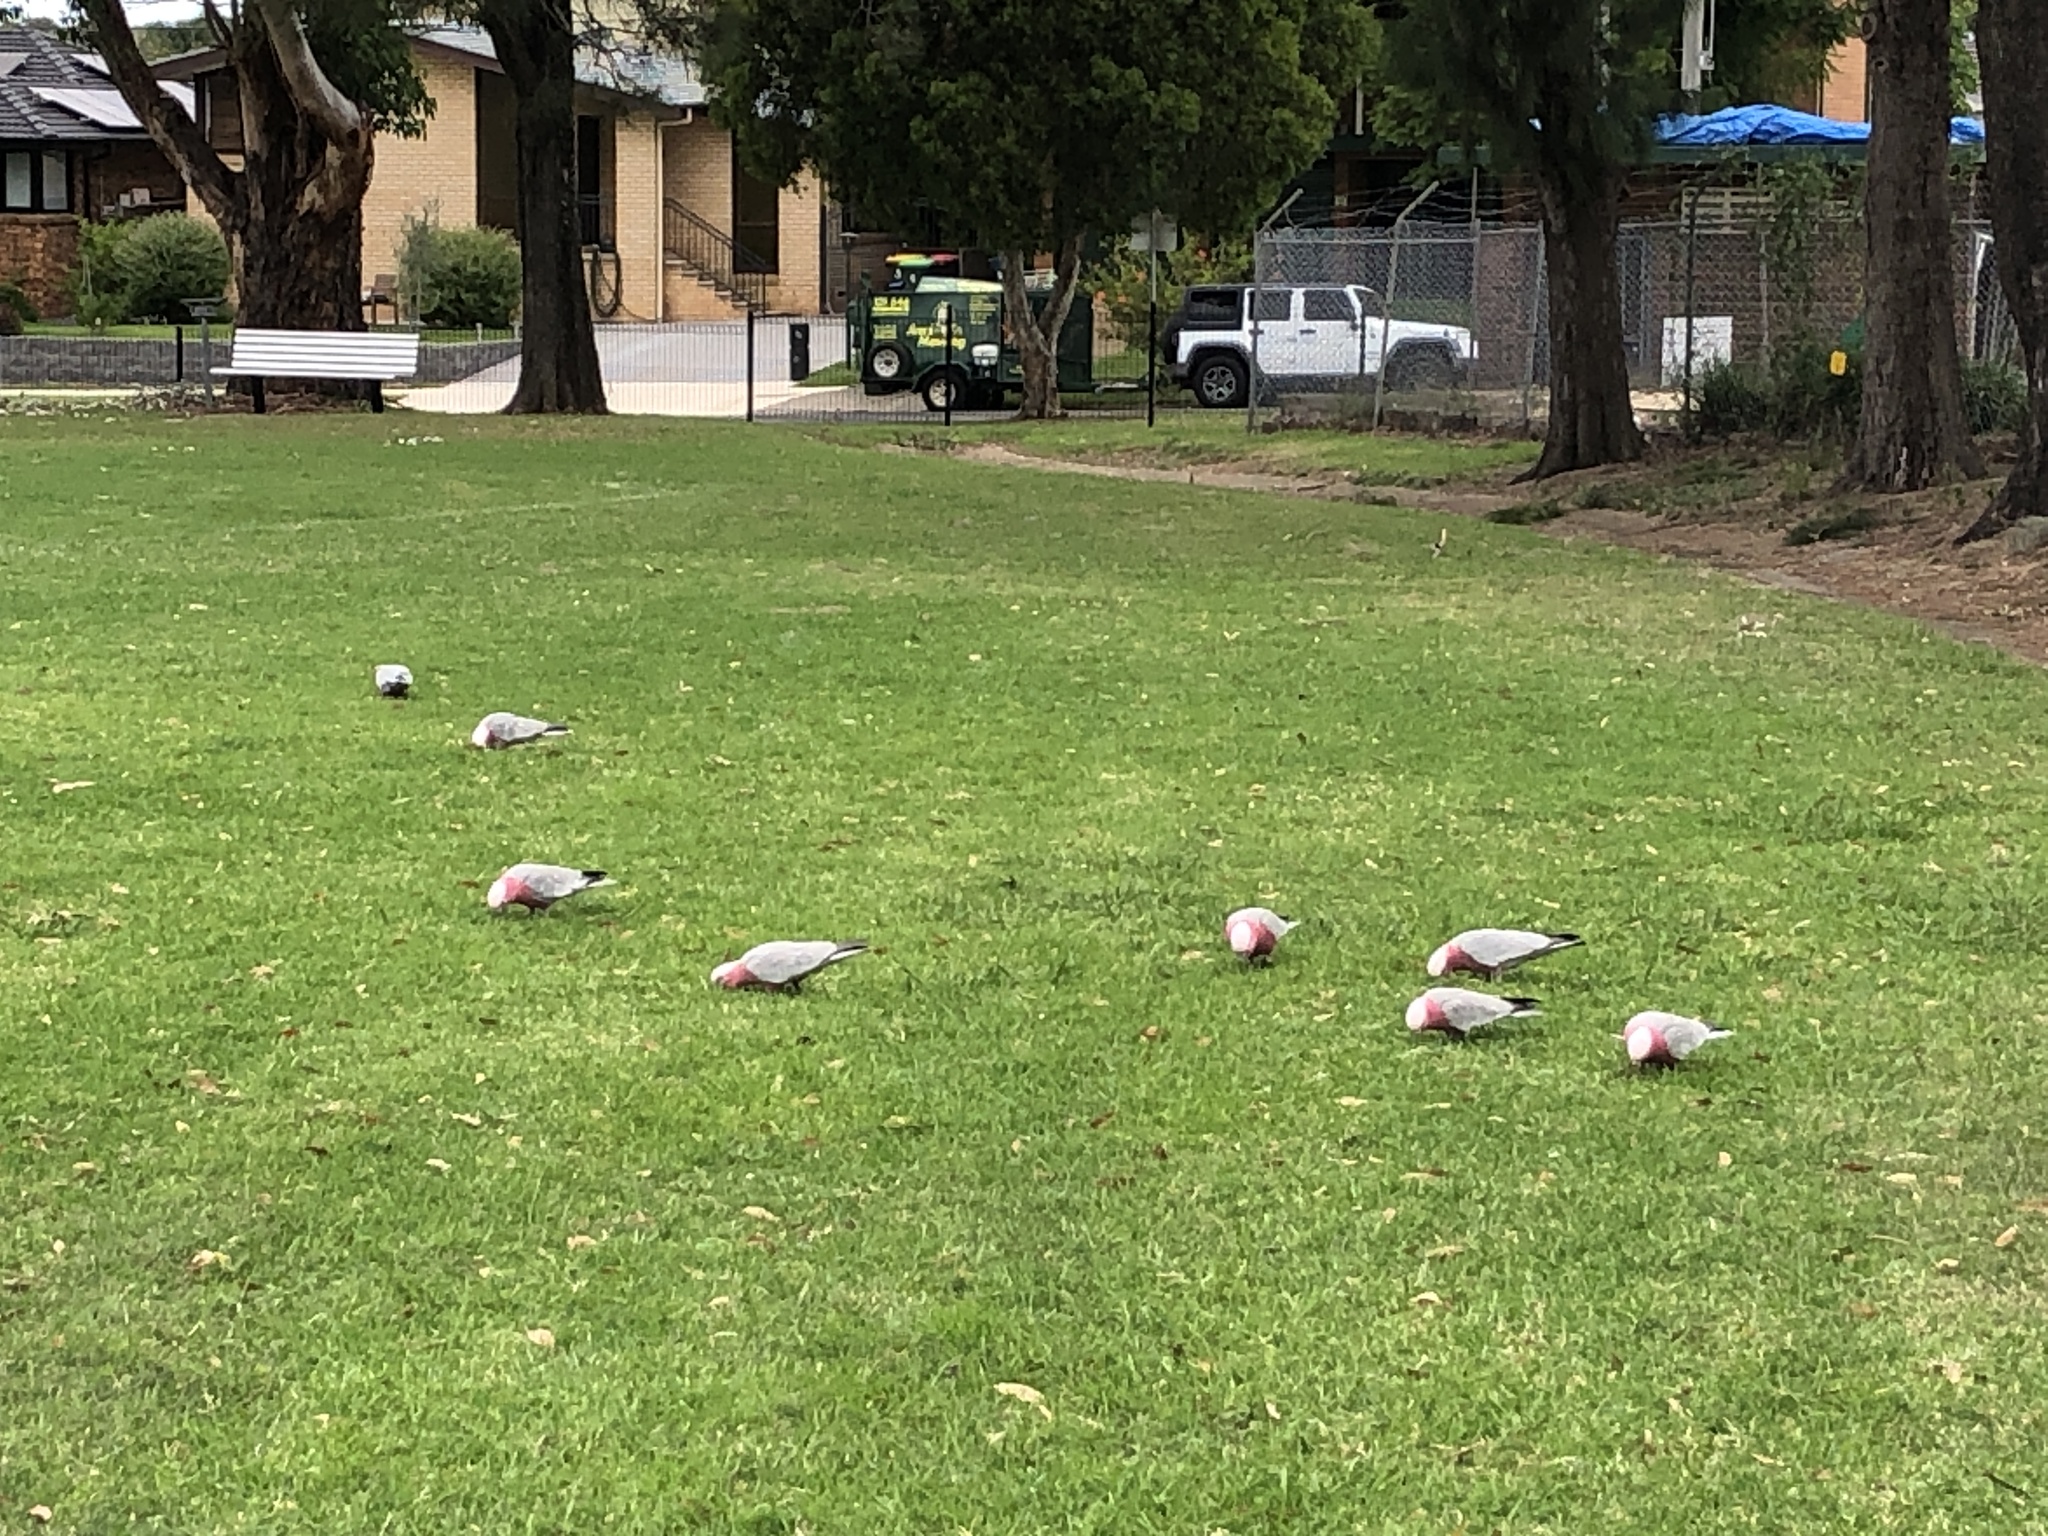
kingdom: Animalia
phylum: Chordata
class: Aves
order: Psittaciformes
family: Psittacidae
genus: Eolophus
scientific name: Eolophus roseicapilla
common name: Galah
